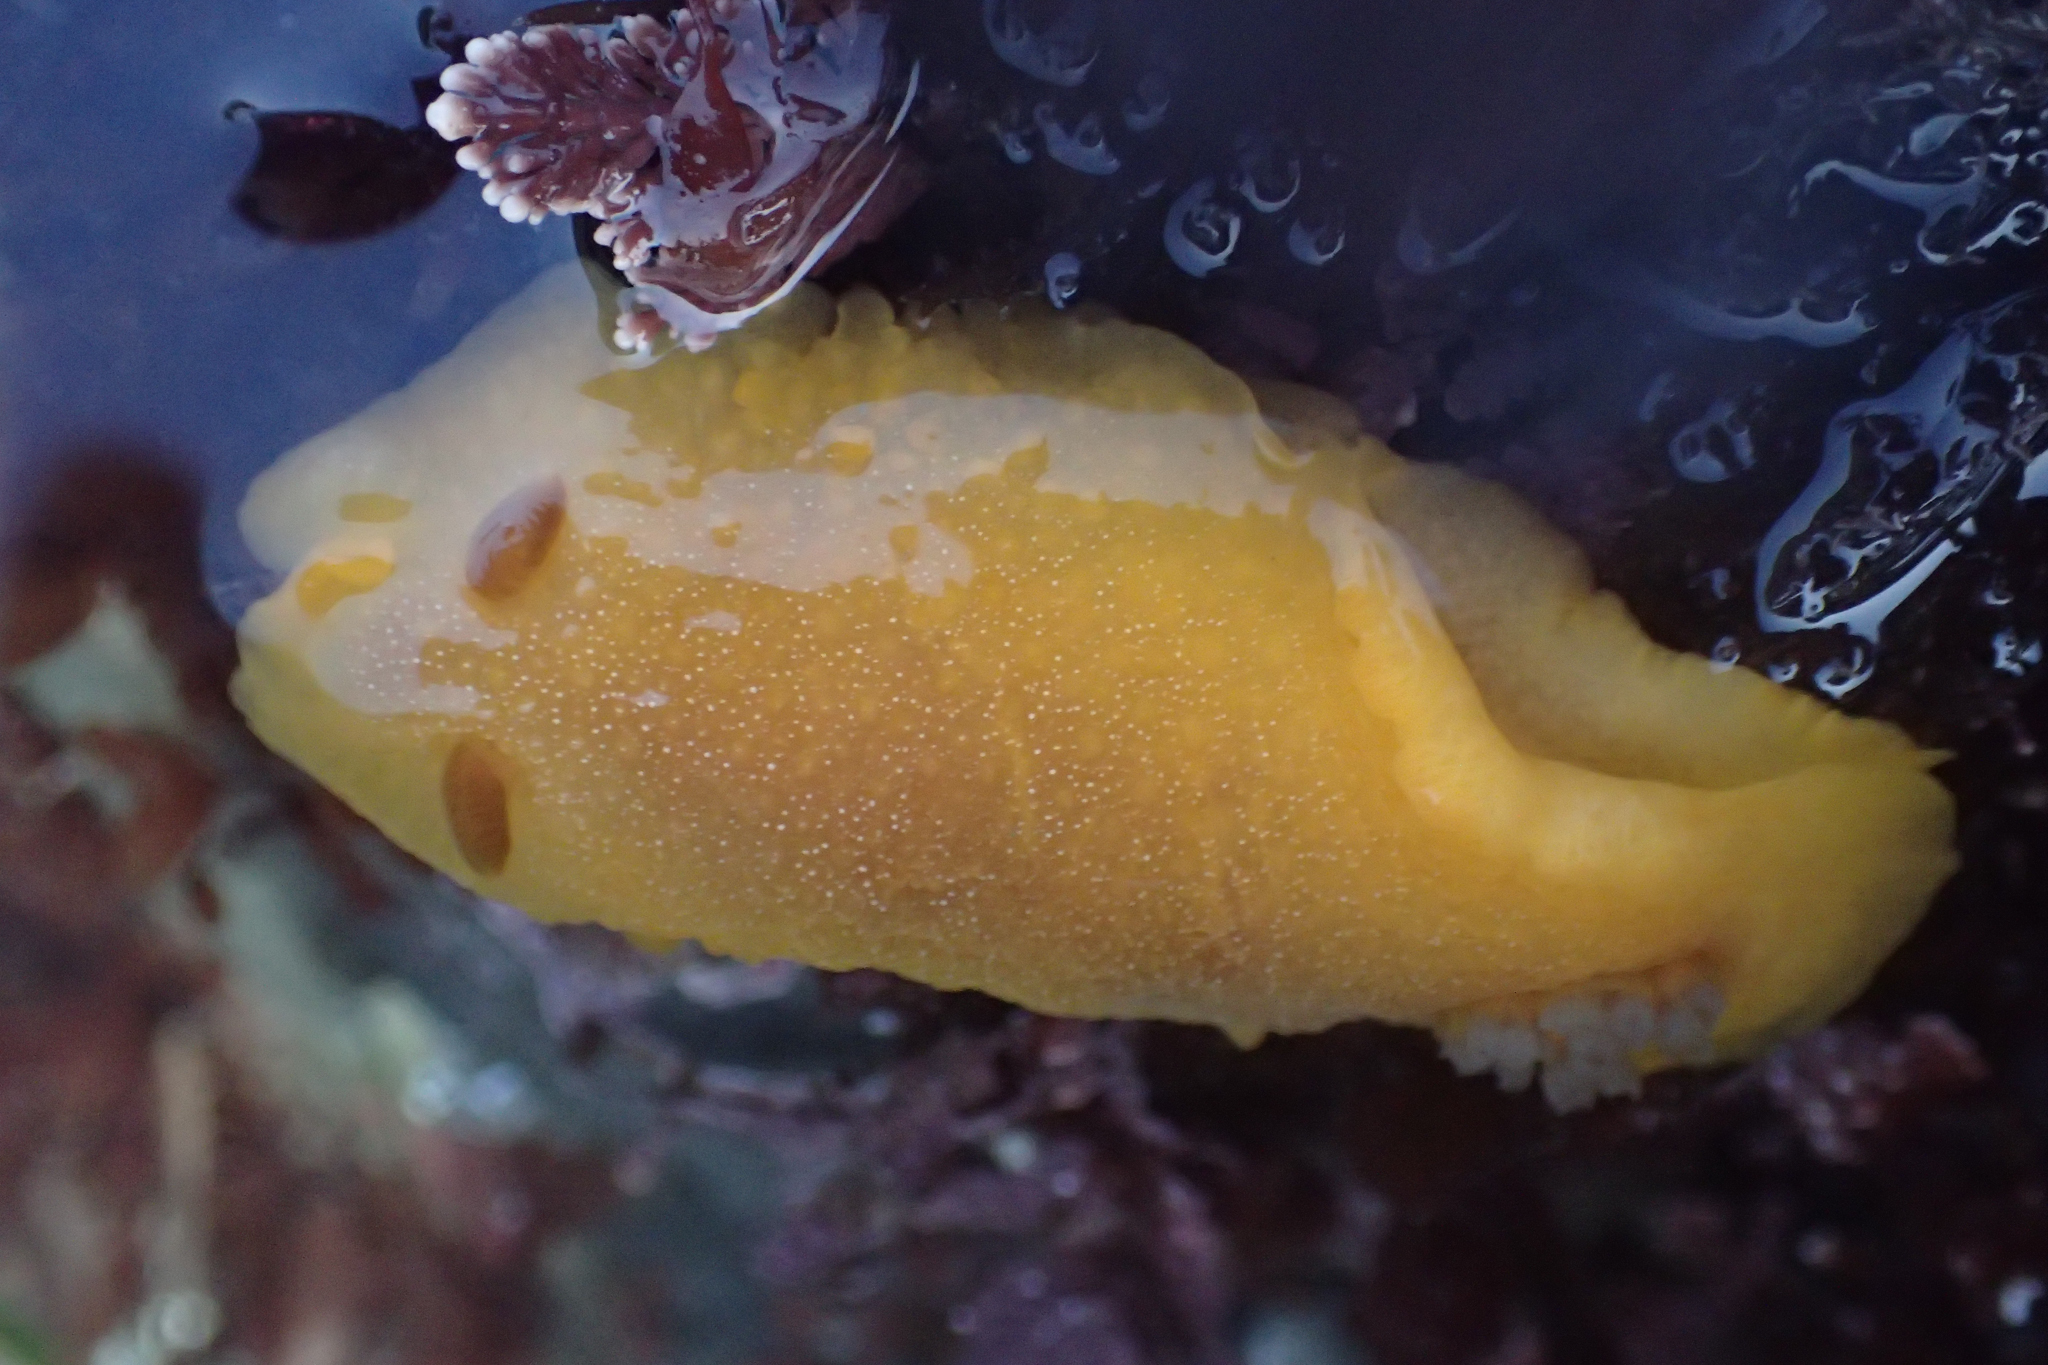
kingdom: Animalia
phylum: Mollusca
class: Gastropoda
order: Nudibranchia
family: Dendrodorididae
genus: Doriopsilla
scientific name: Doriopsilla albopunctata
